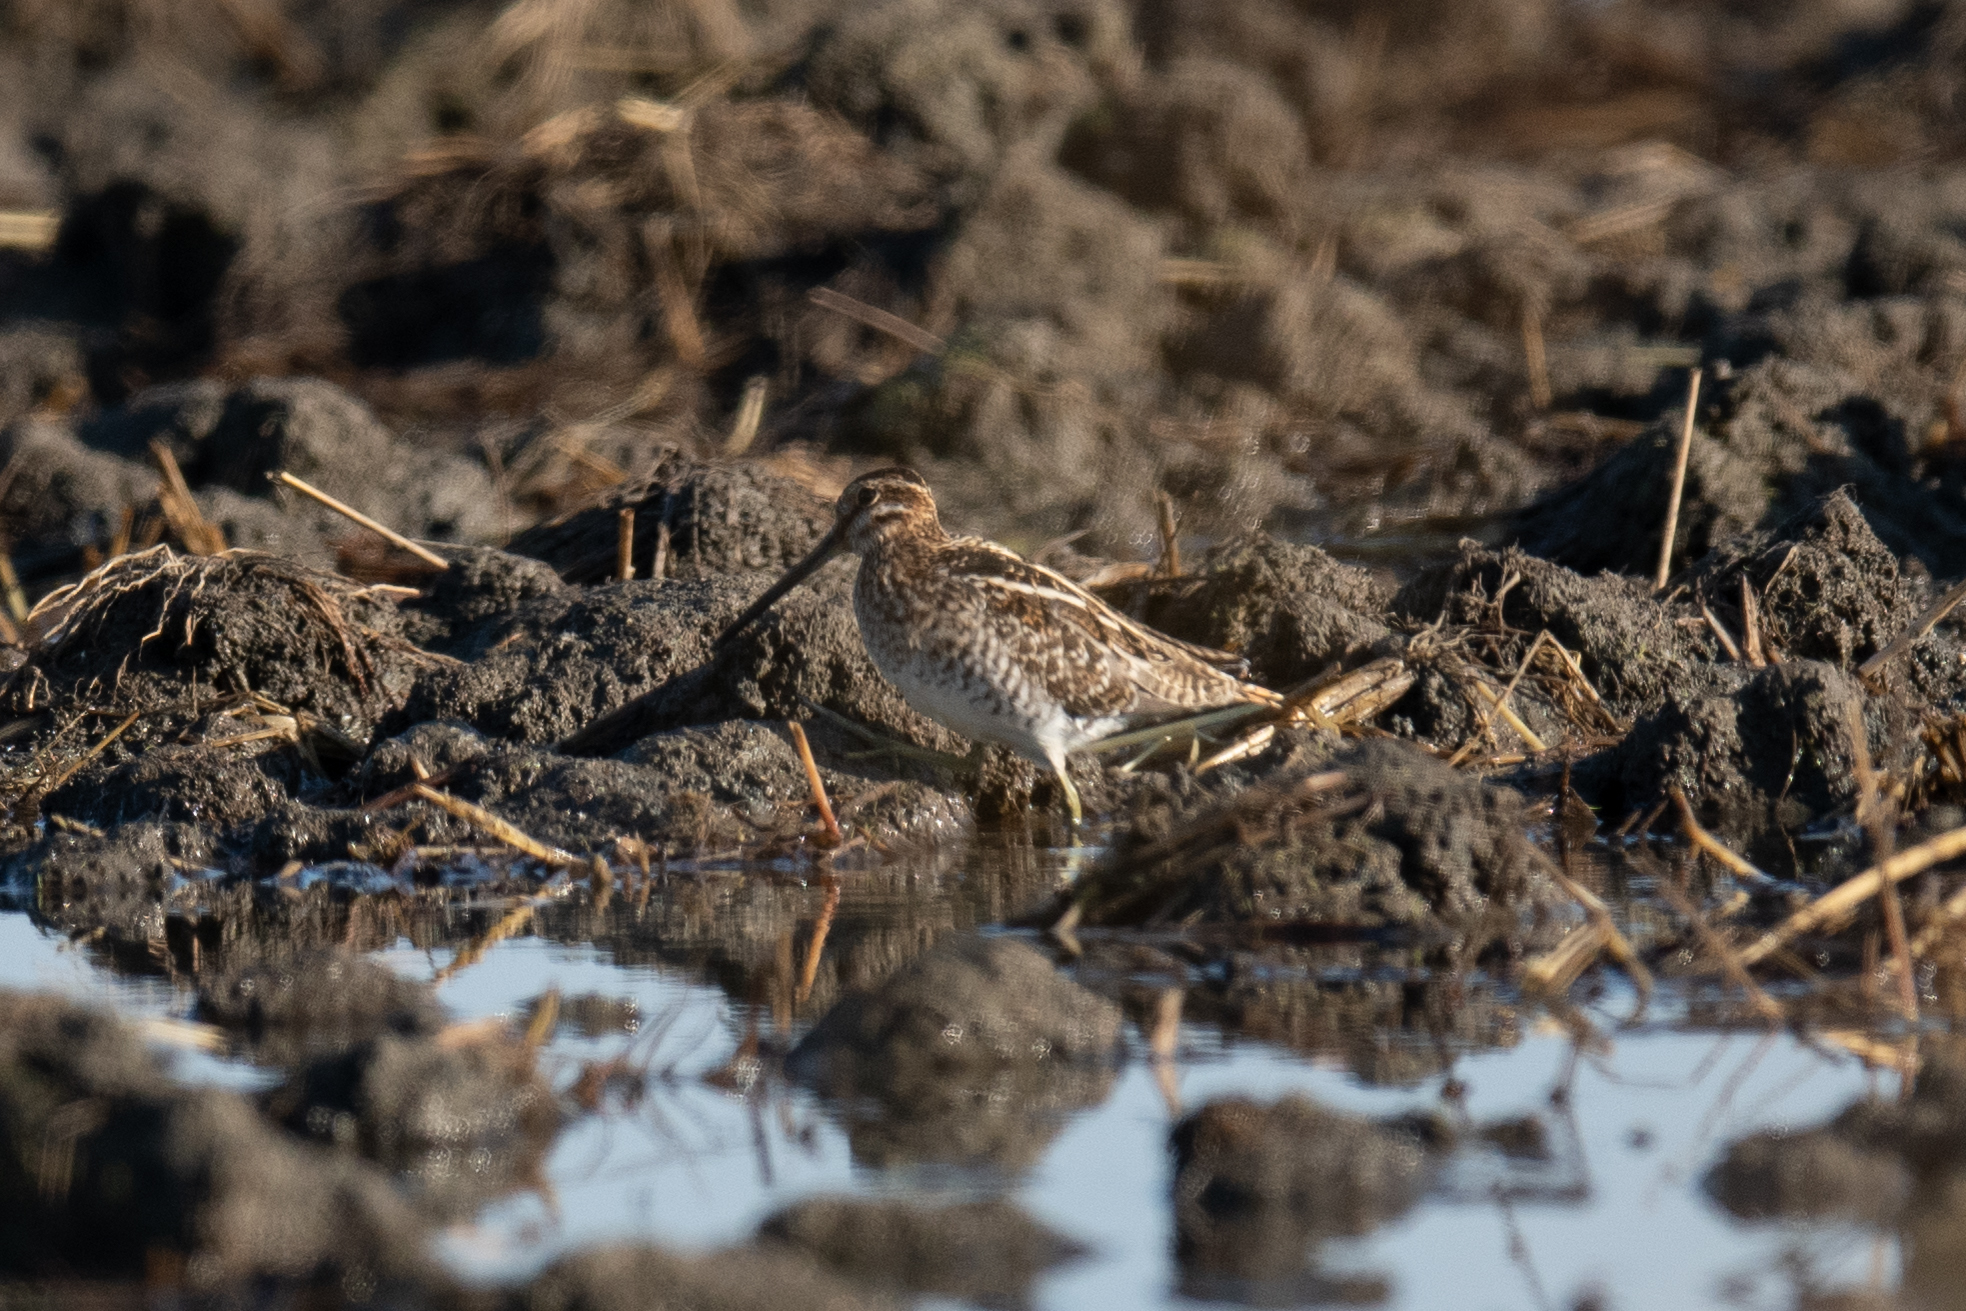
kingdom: Animalia
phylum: Chordata
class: Aves
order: Charadriiformes
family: Scolopacidae
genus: Gallinago
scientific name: Gallinago delicata
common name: Wilson's snipe
